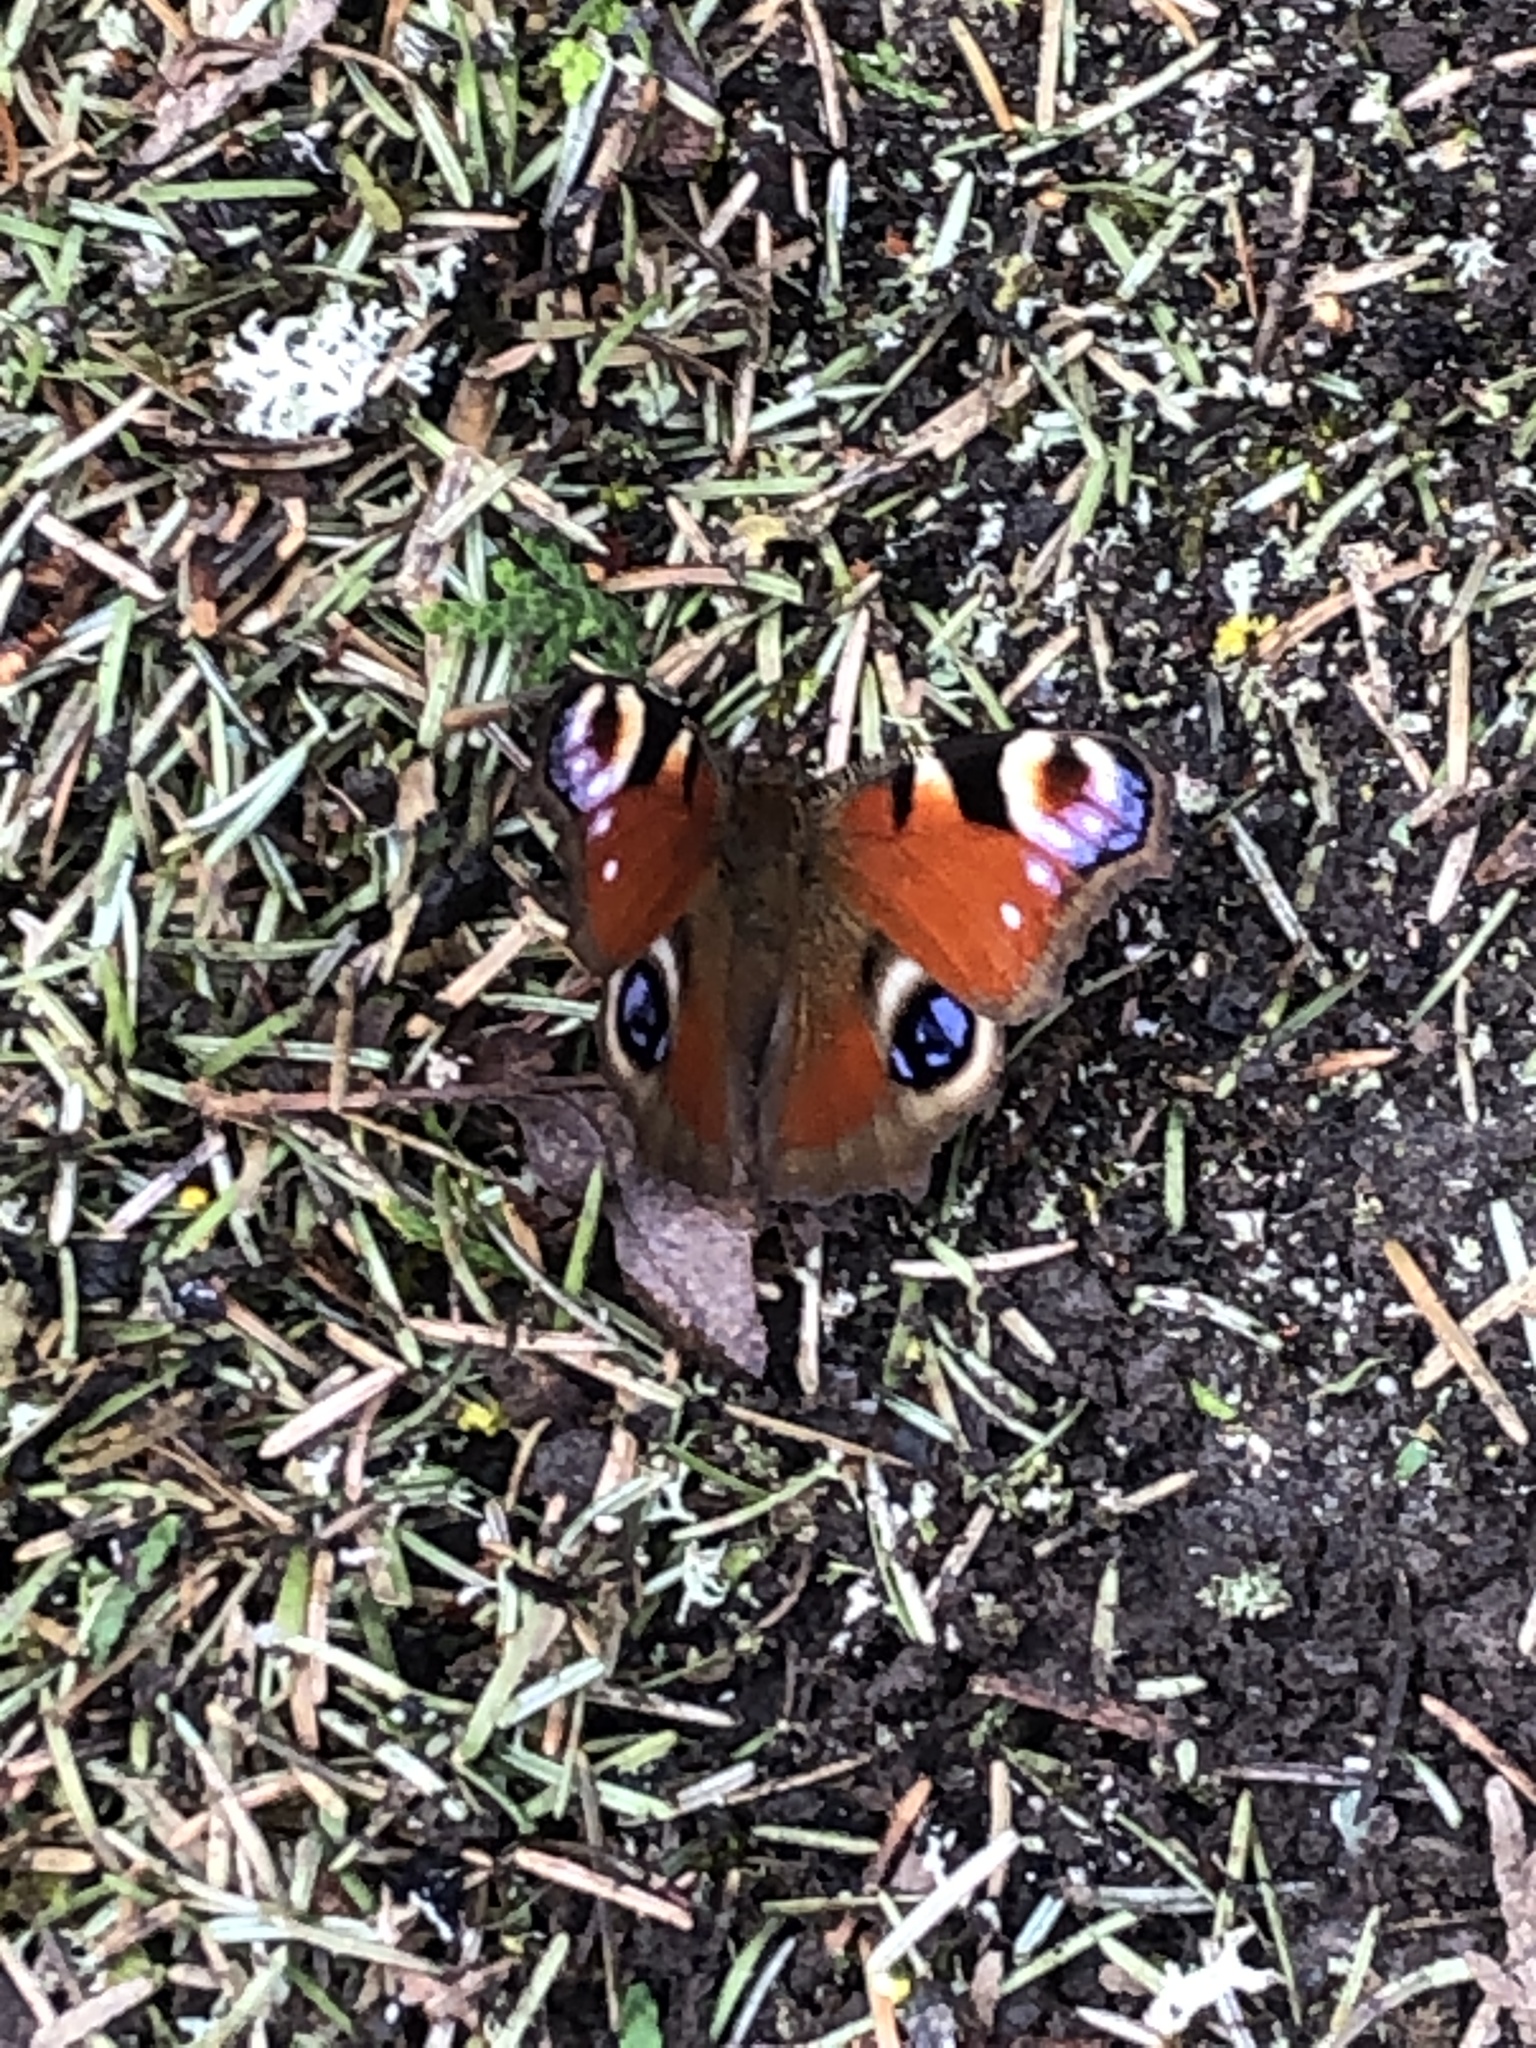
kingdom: Animalia
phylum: Arthropoda
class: Insecta
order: Lepidoptera
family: Nymphalidae
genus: Aglais
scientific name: Aglais io
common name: Peacock
